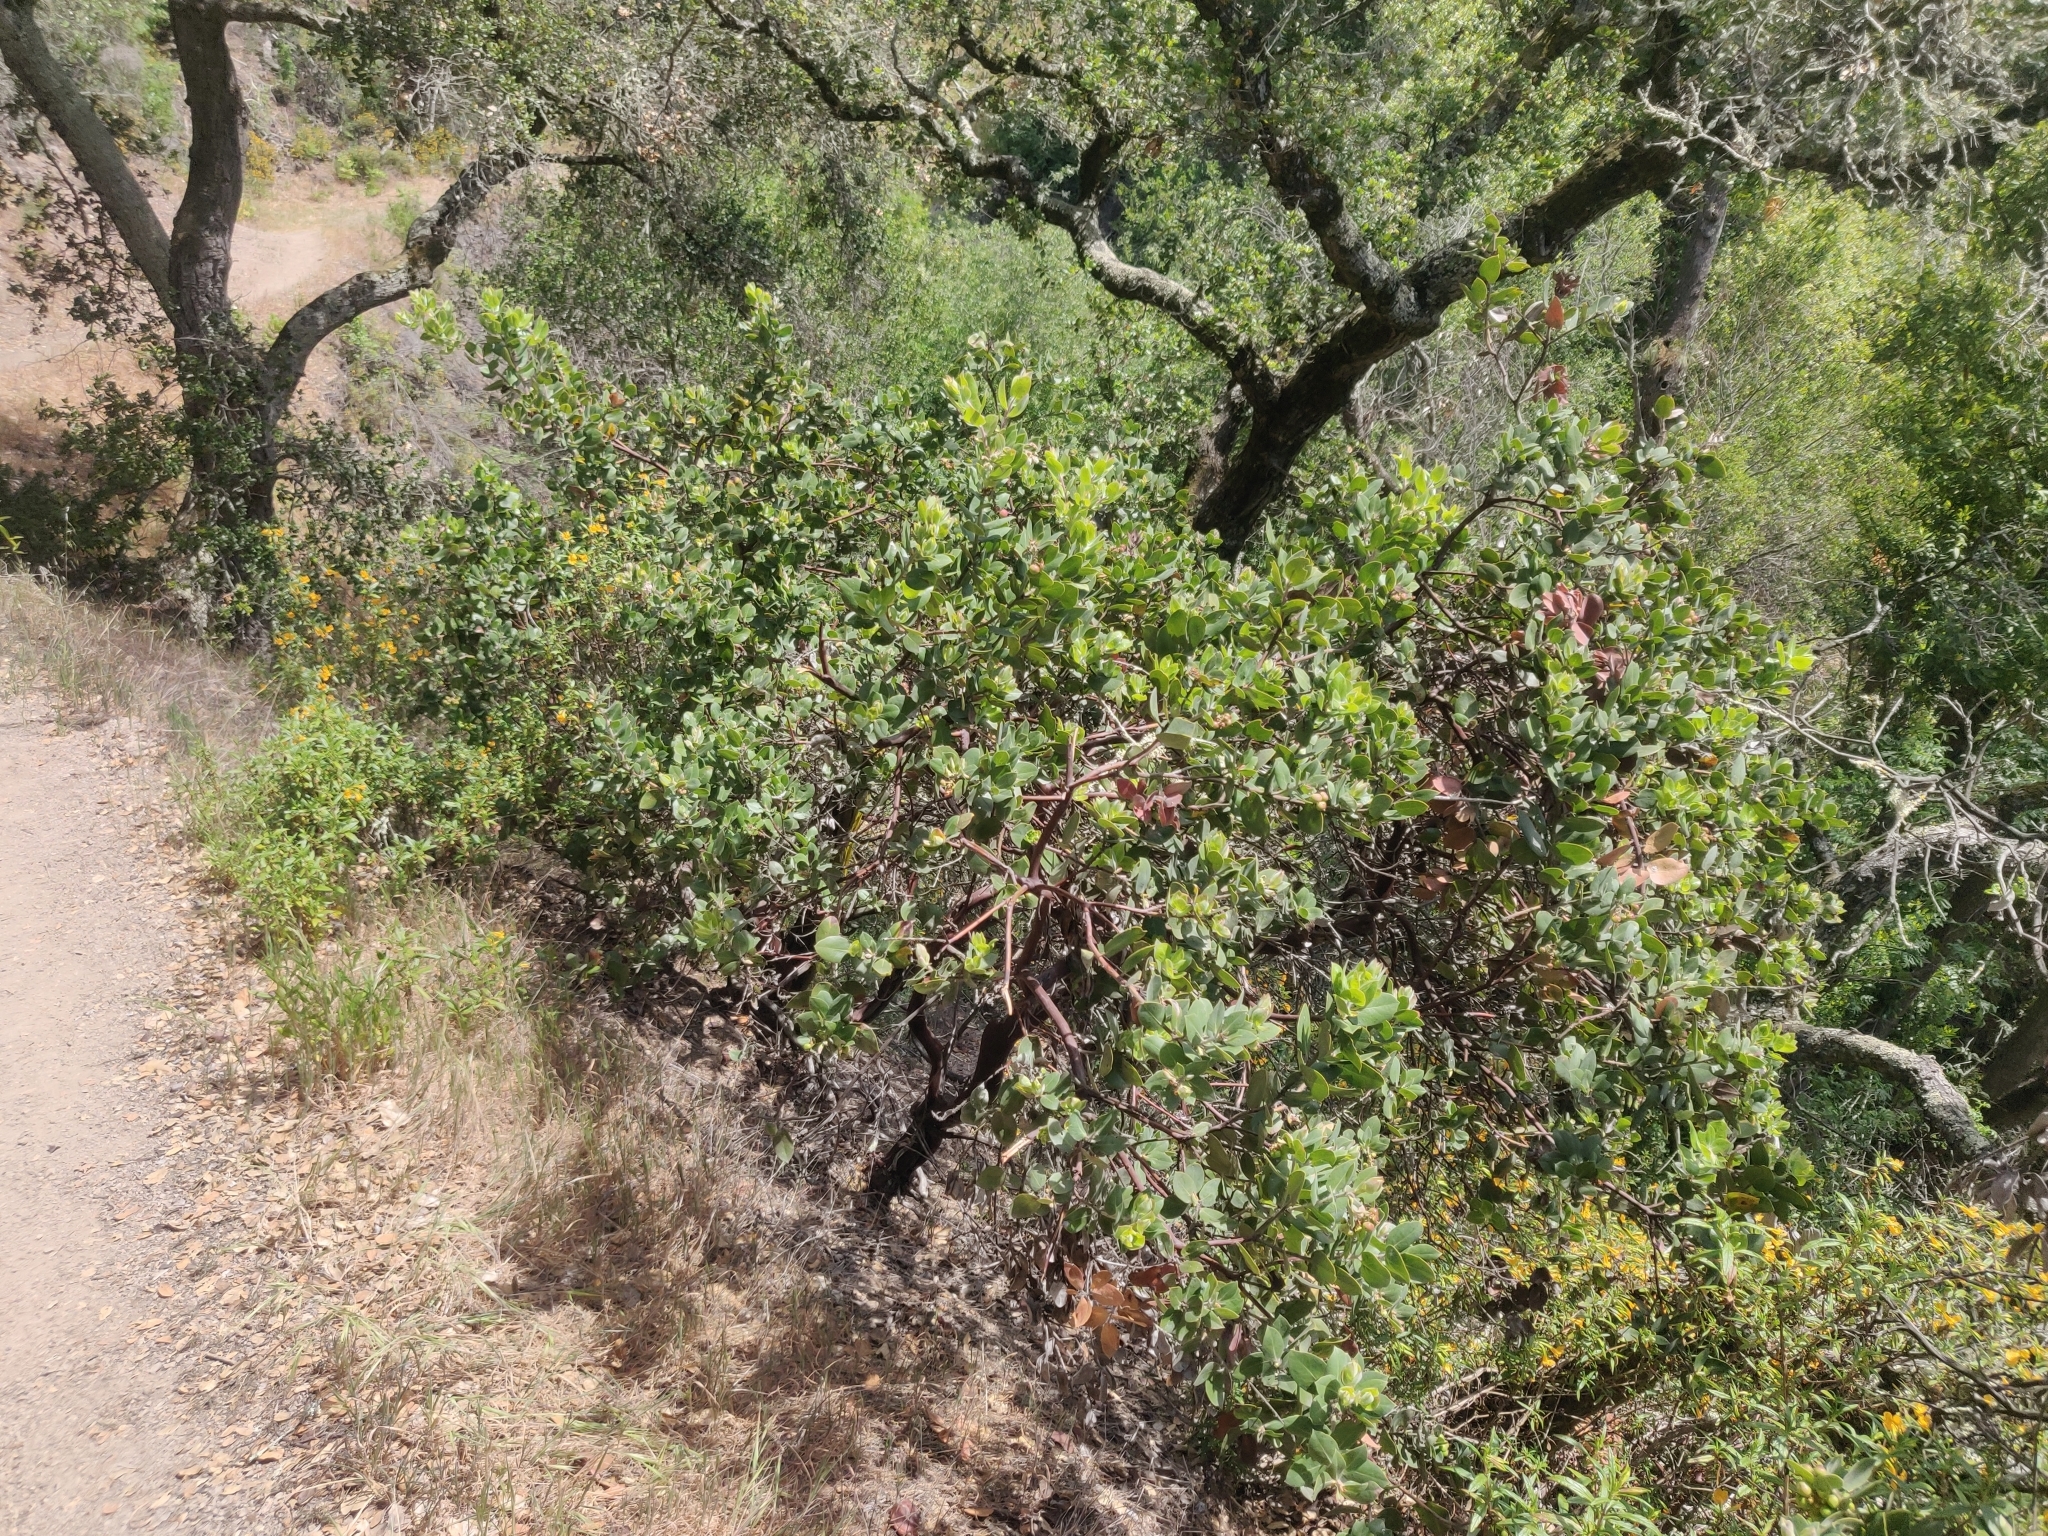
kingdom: Plantae
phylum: Tracheophyta
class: Magnoliopsida
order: Ericales
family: Ericaceae
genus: Arctostaphylos
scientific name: Arctostaphylos crustacea
